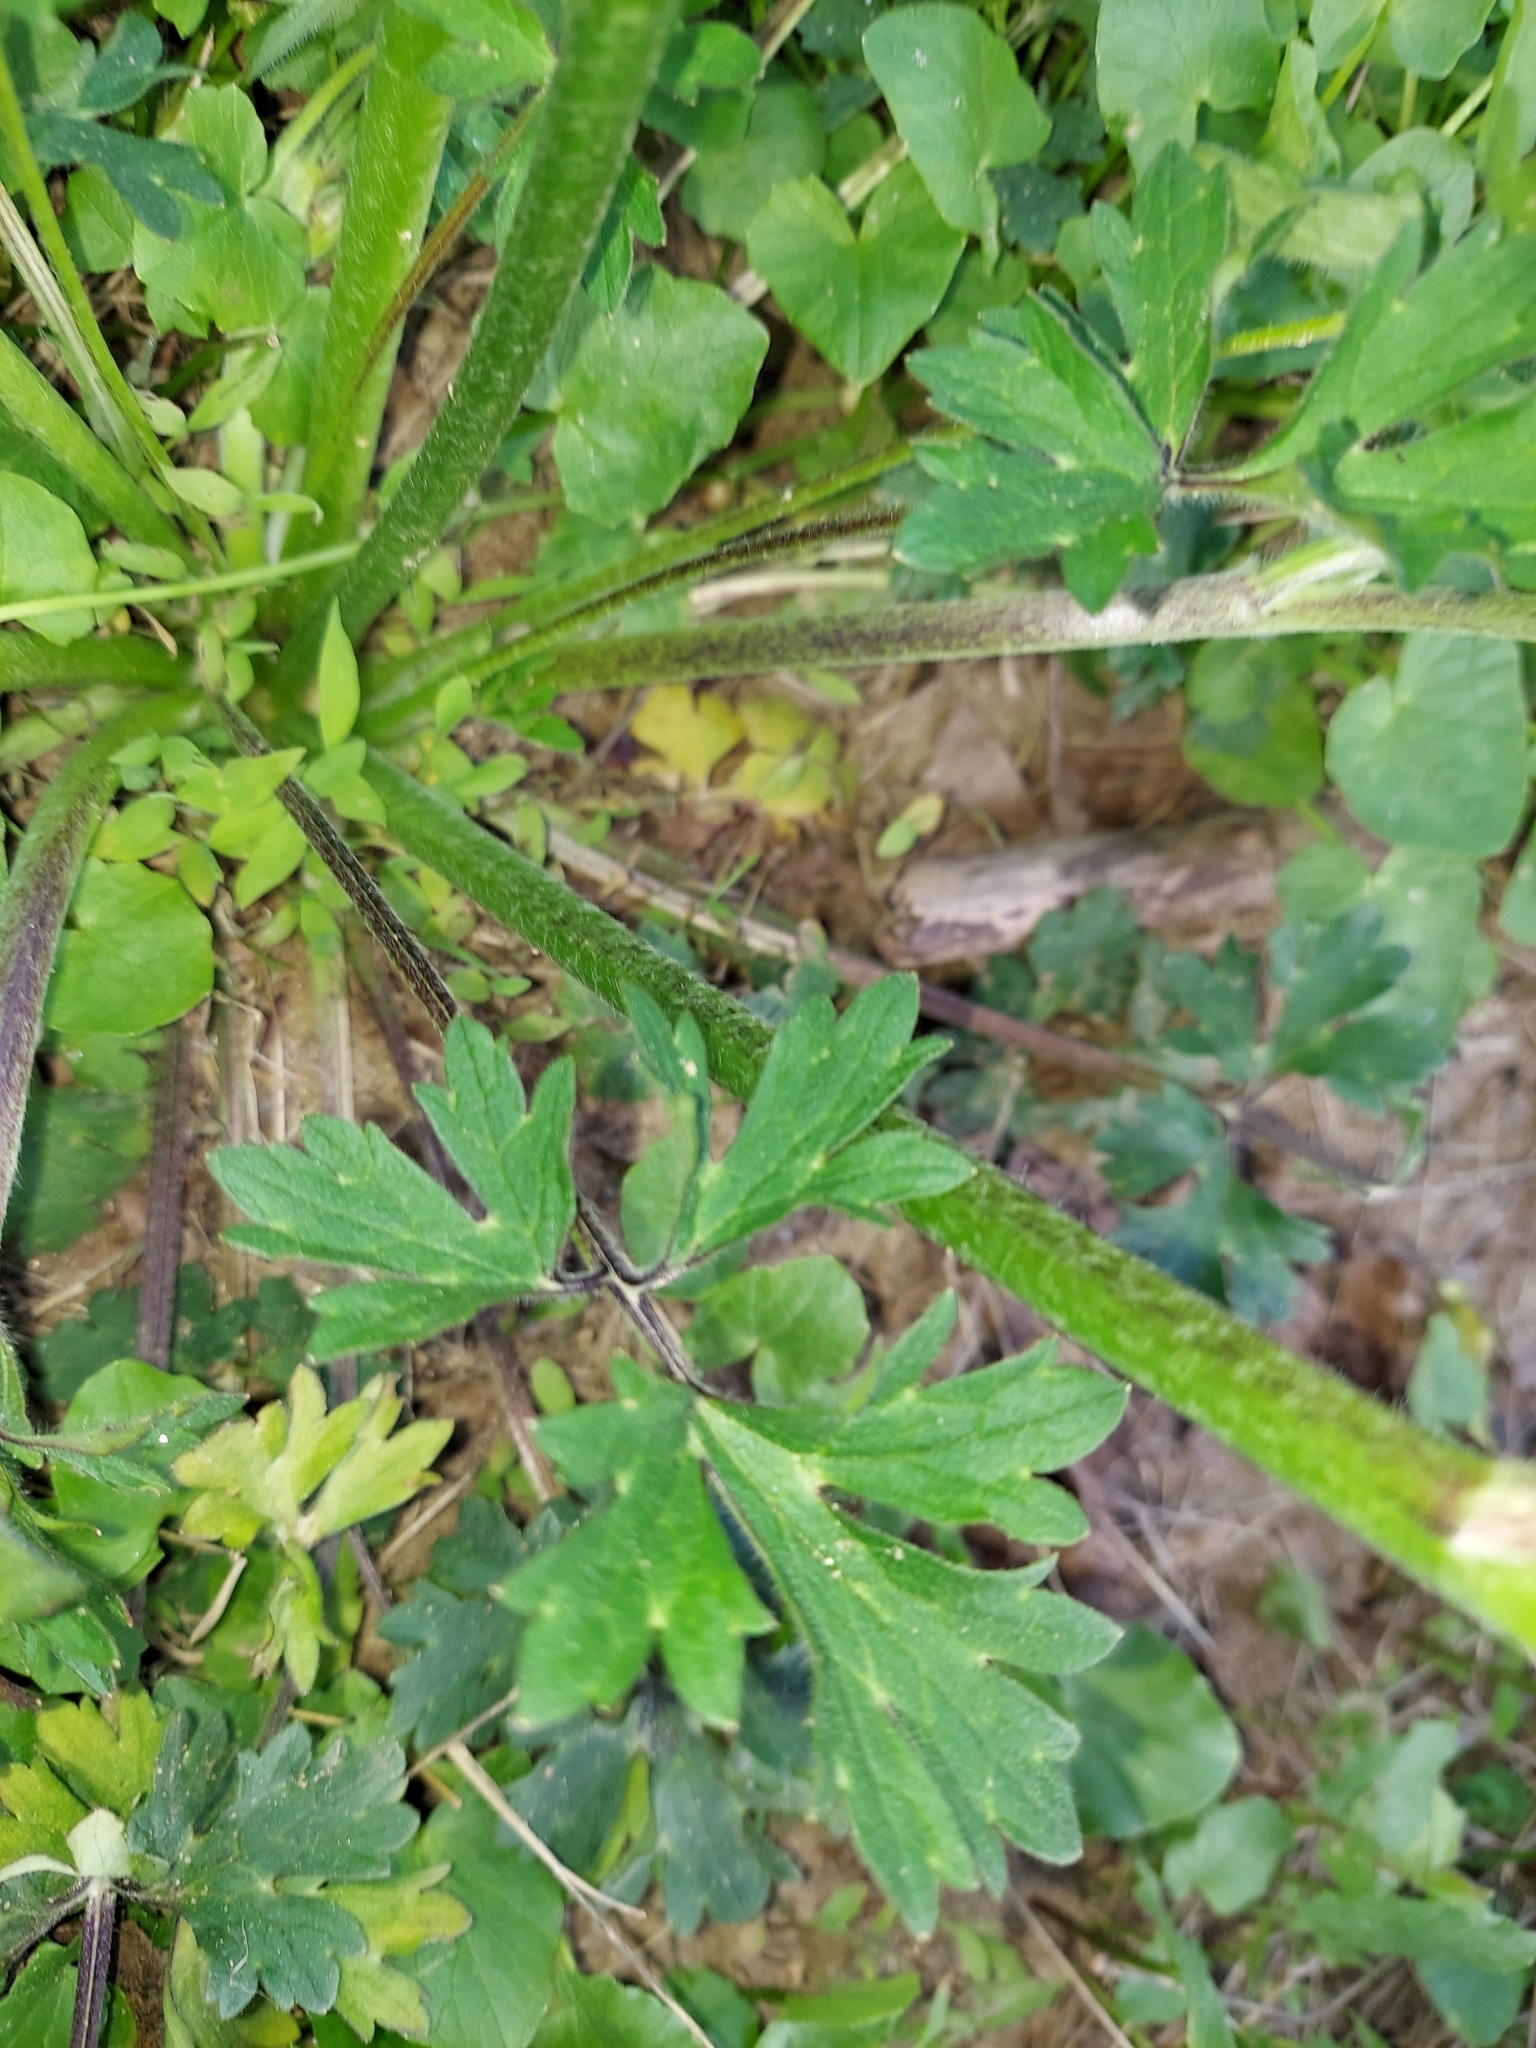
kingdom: Plantae
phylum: Tracheophyta
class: Magnoliopsida
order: Ranunculales
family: Ranunculaceae
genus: Ranunculus
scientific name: Ranunculus bulbosus
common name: Bulbous buttercup
